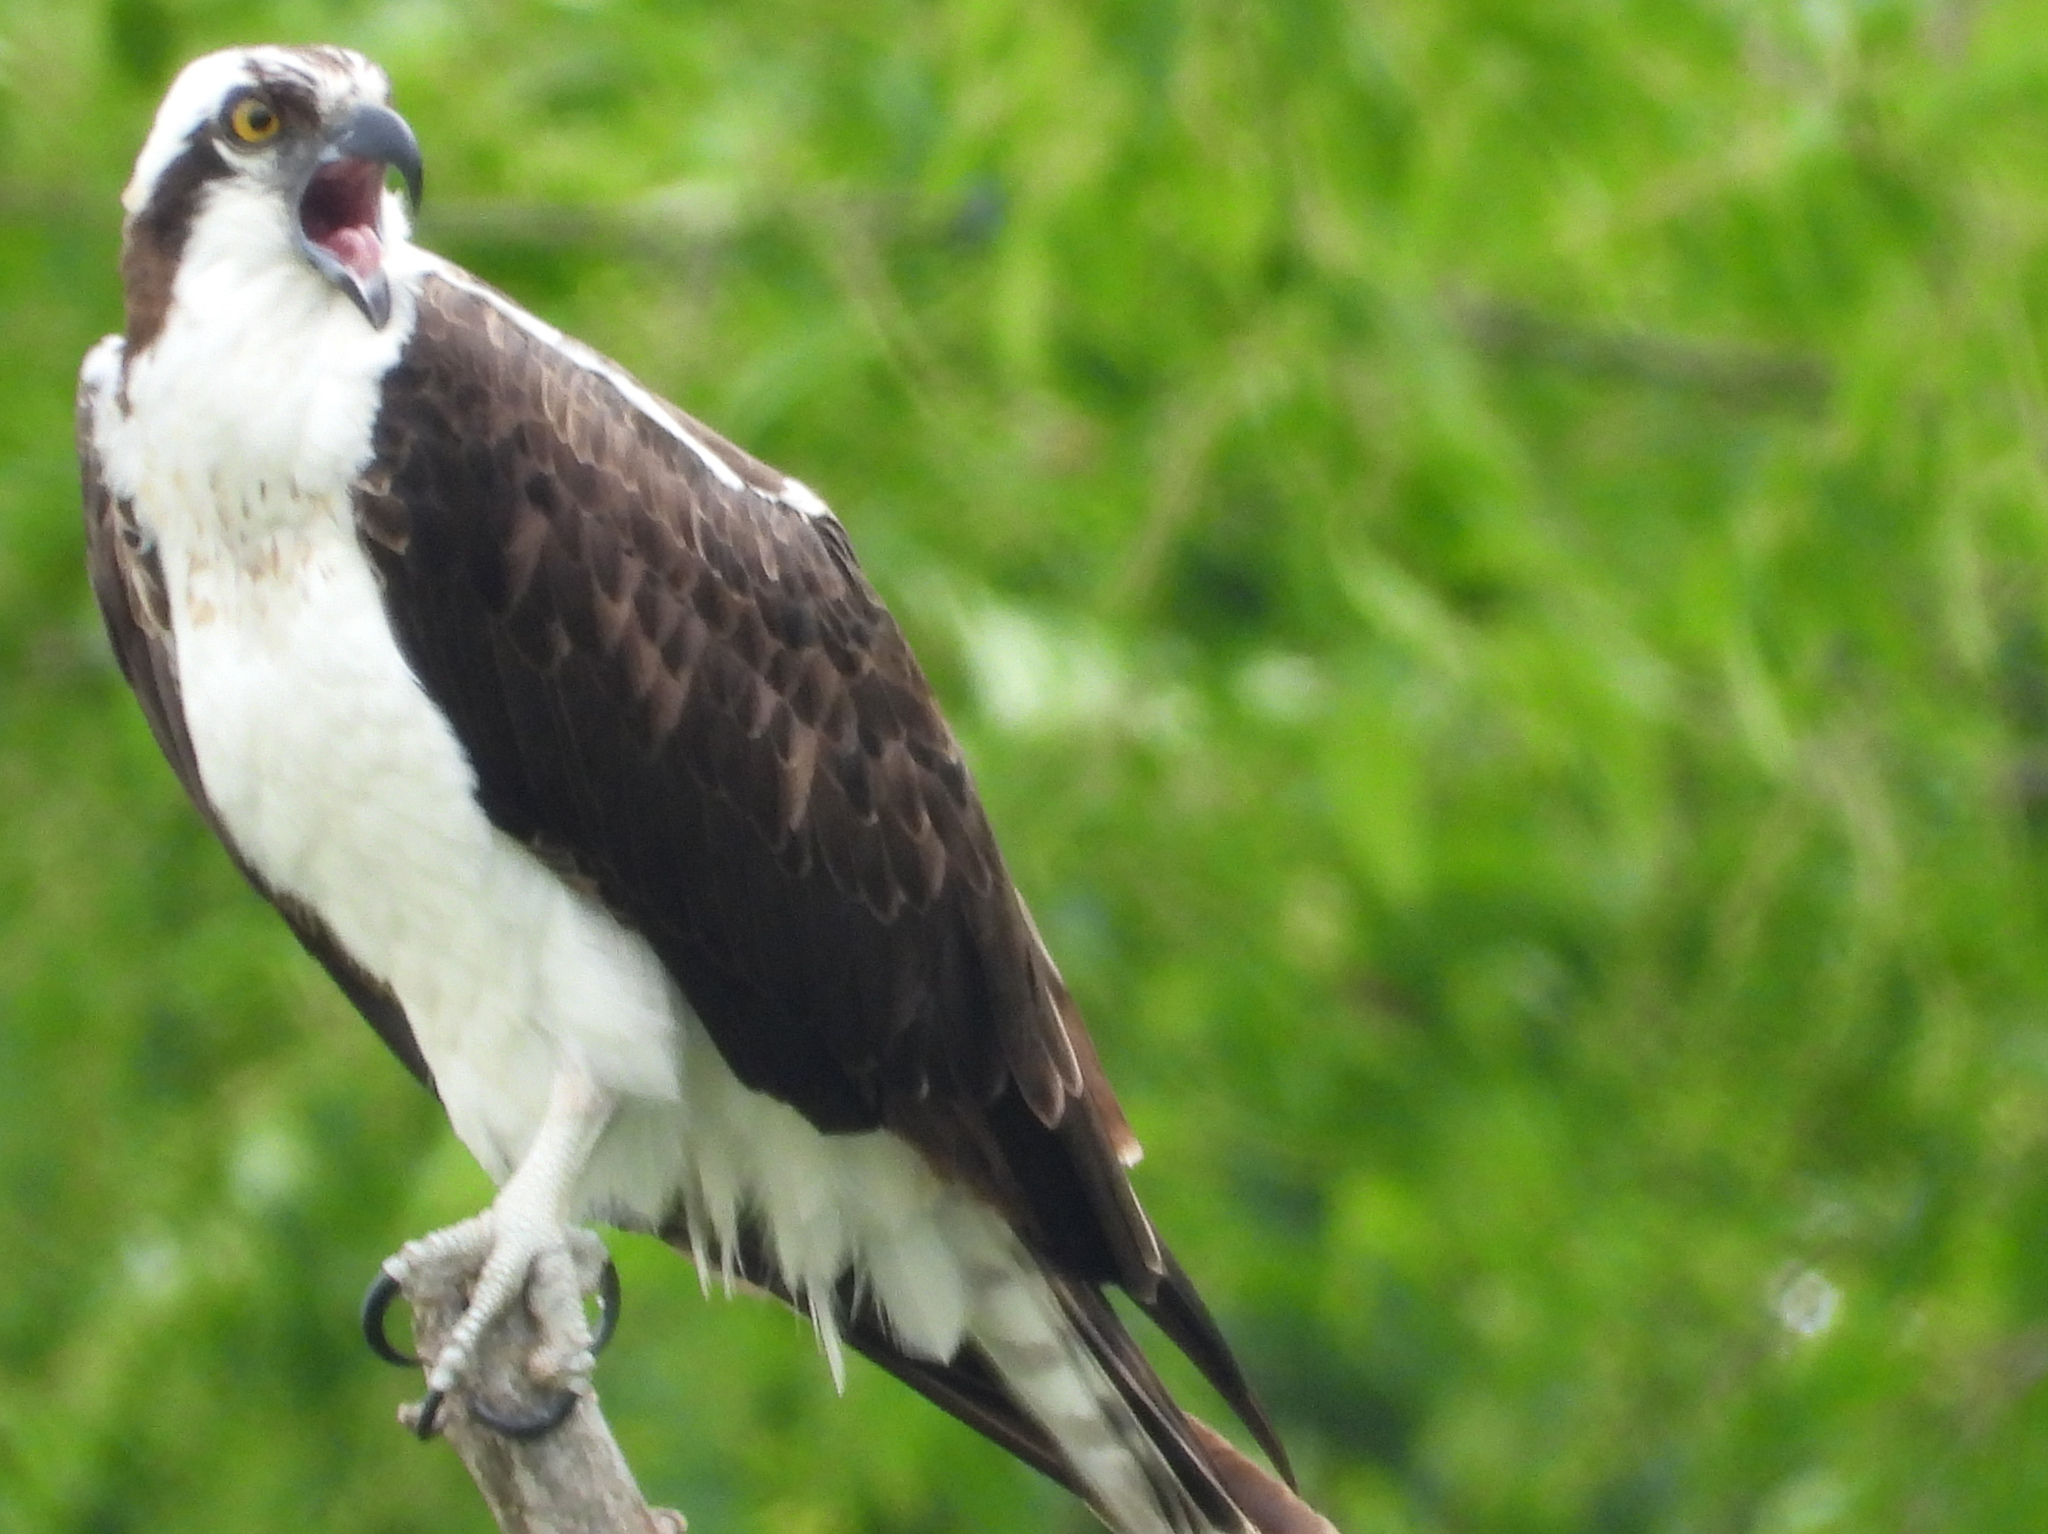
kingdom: Animalia
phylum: Chordata
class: Aves
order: Accipitriformes
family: Pandionidae
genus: Pandion
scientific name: Pandion haliaetus
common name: Osprey
